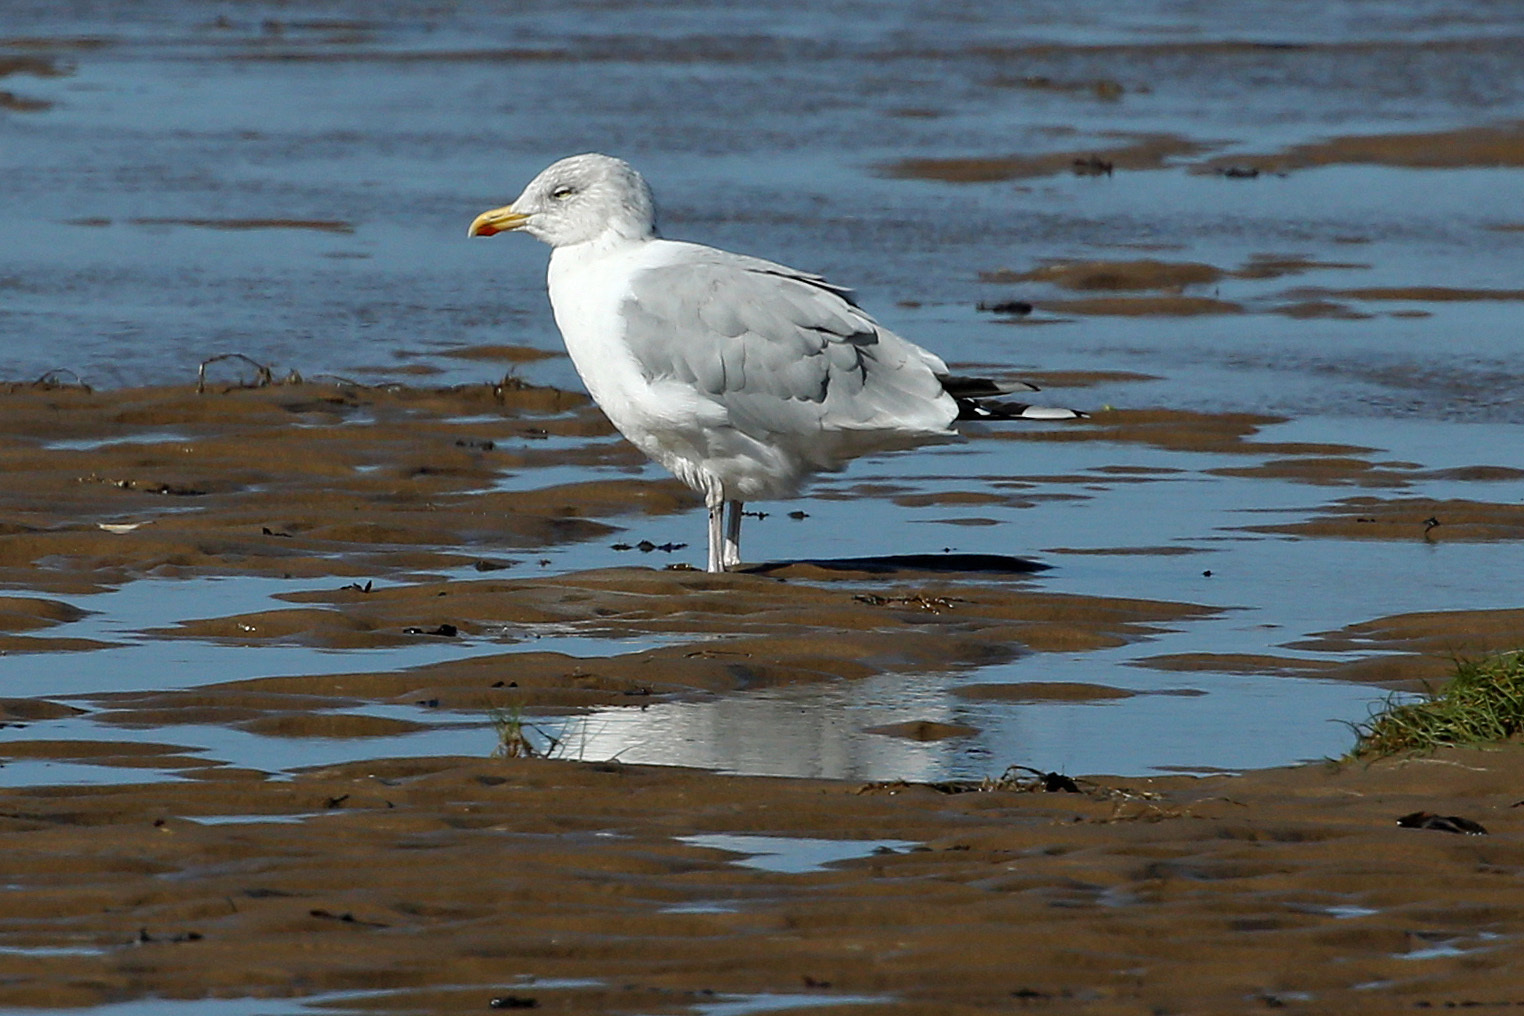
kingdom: Animalia
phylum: Chordata
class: Aves
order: Charadriiformes
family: Laridae
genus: Larus
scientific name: Larus argentatus
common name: Herring gull
